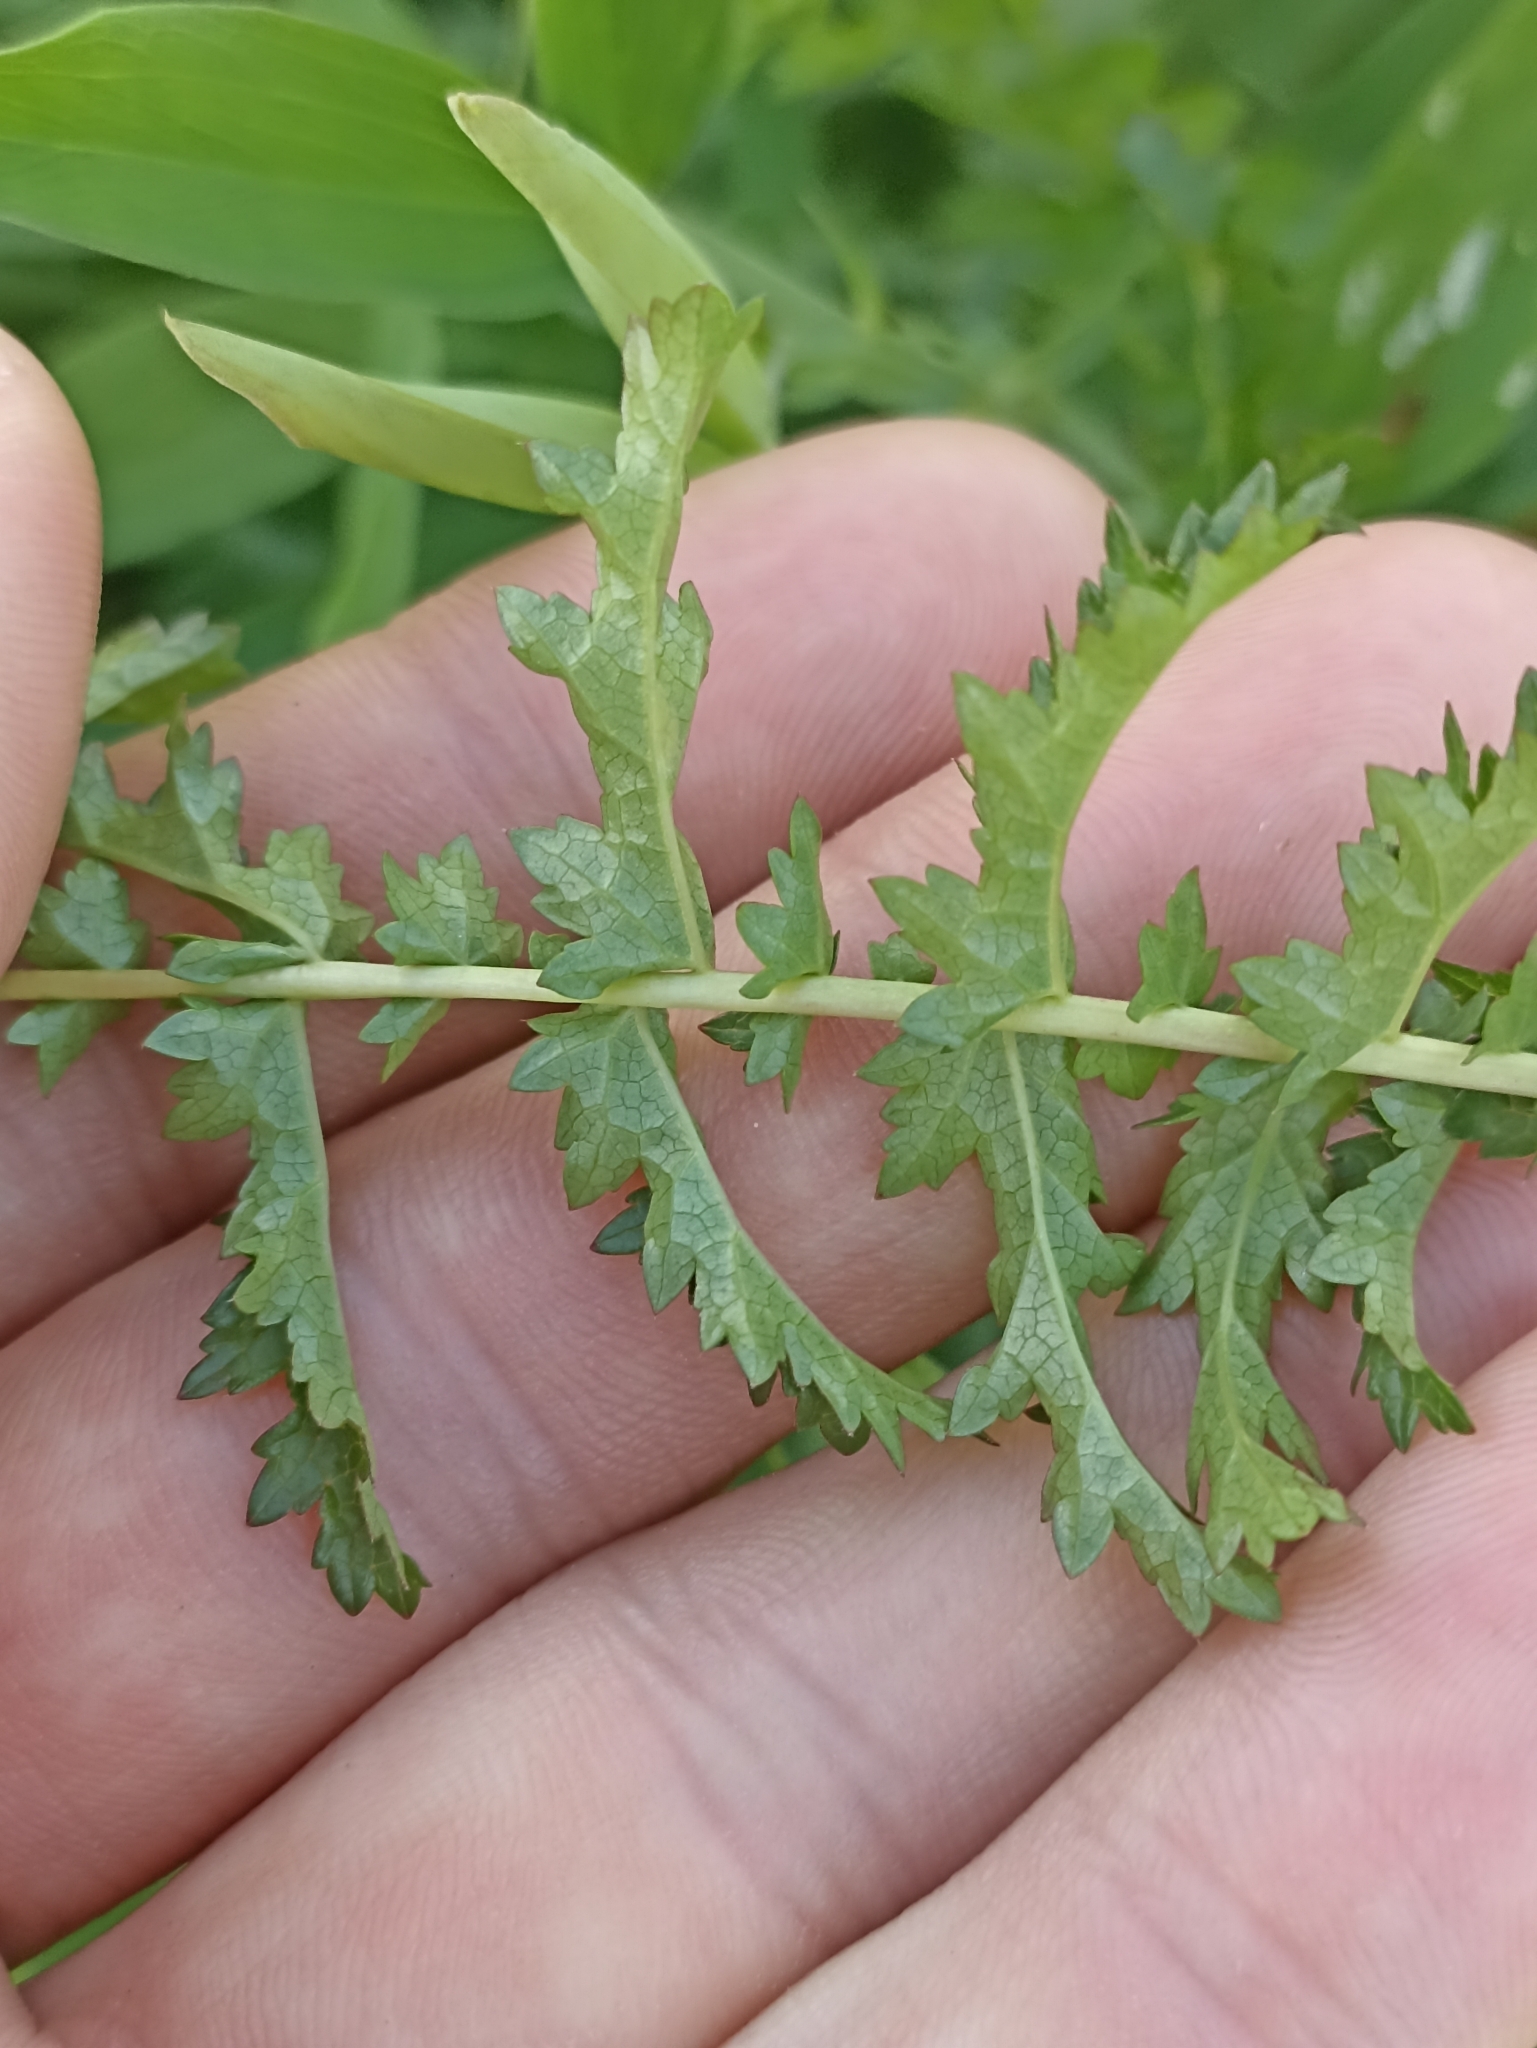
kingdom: Plantae
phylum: Tracheophyta
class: Magnoliopsida
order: Rosales
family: Rosaceae
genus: Filipendula
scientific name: Filipendula vulgaris
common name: Dropwort
